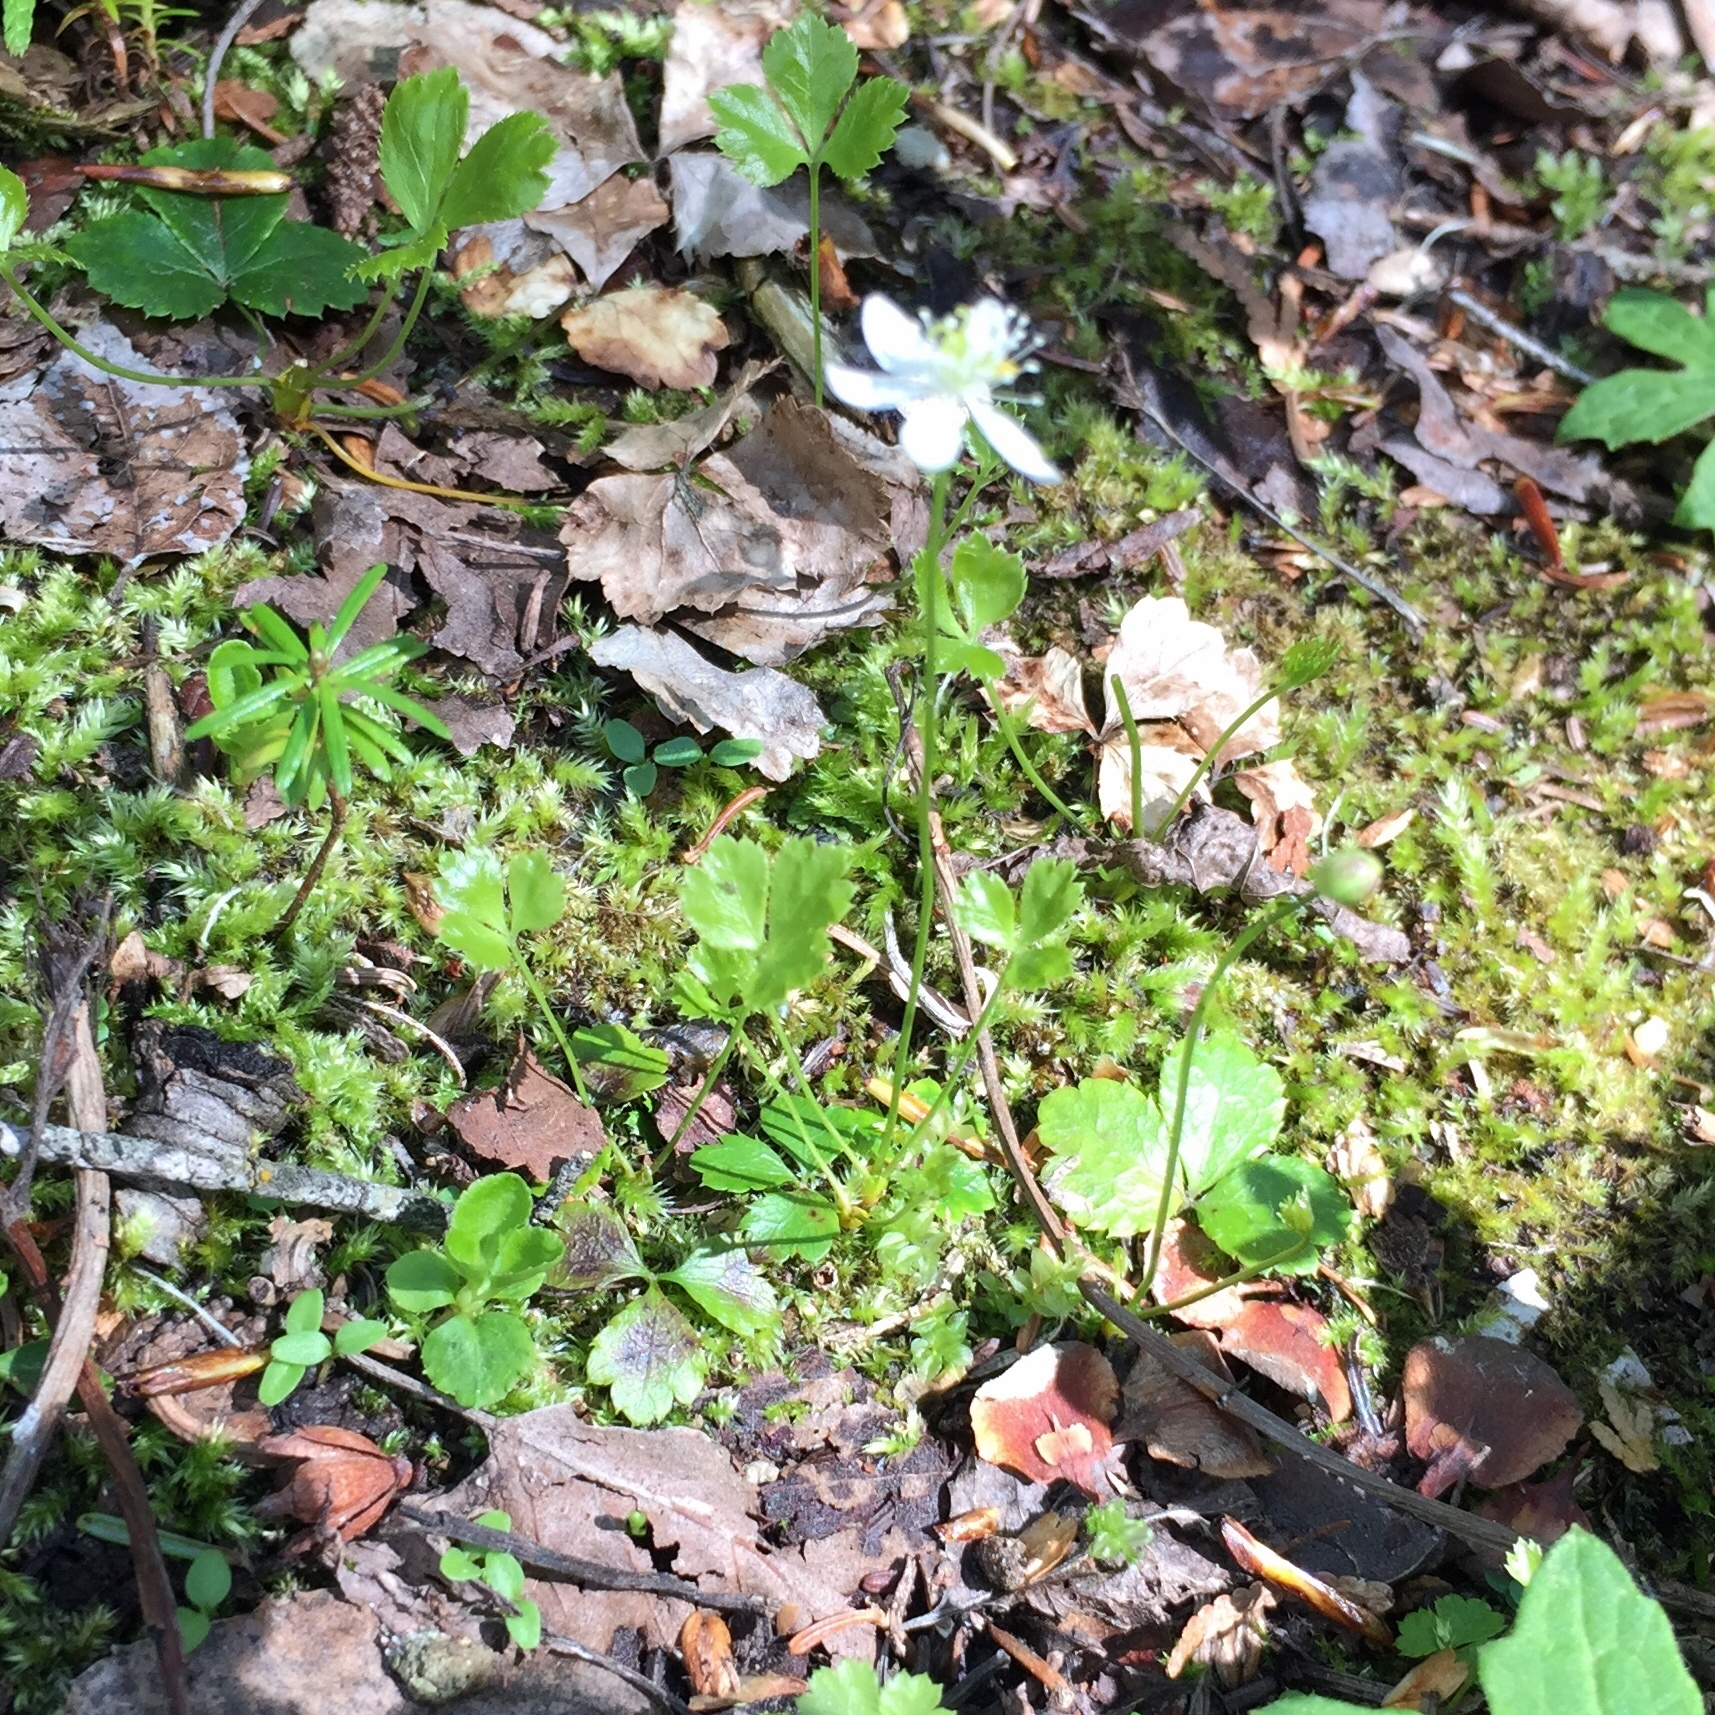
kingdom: Plantae
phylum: Tracheophyta
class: Magnoliopsida
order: Ranunculales
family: Ranunculaceae
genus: Coptis
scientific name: Coptis trifolia
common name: Canker-root
